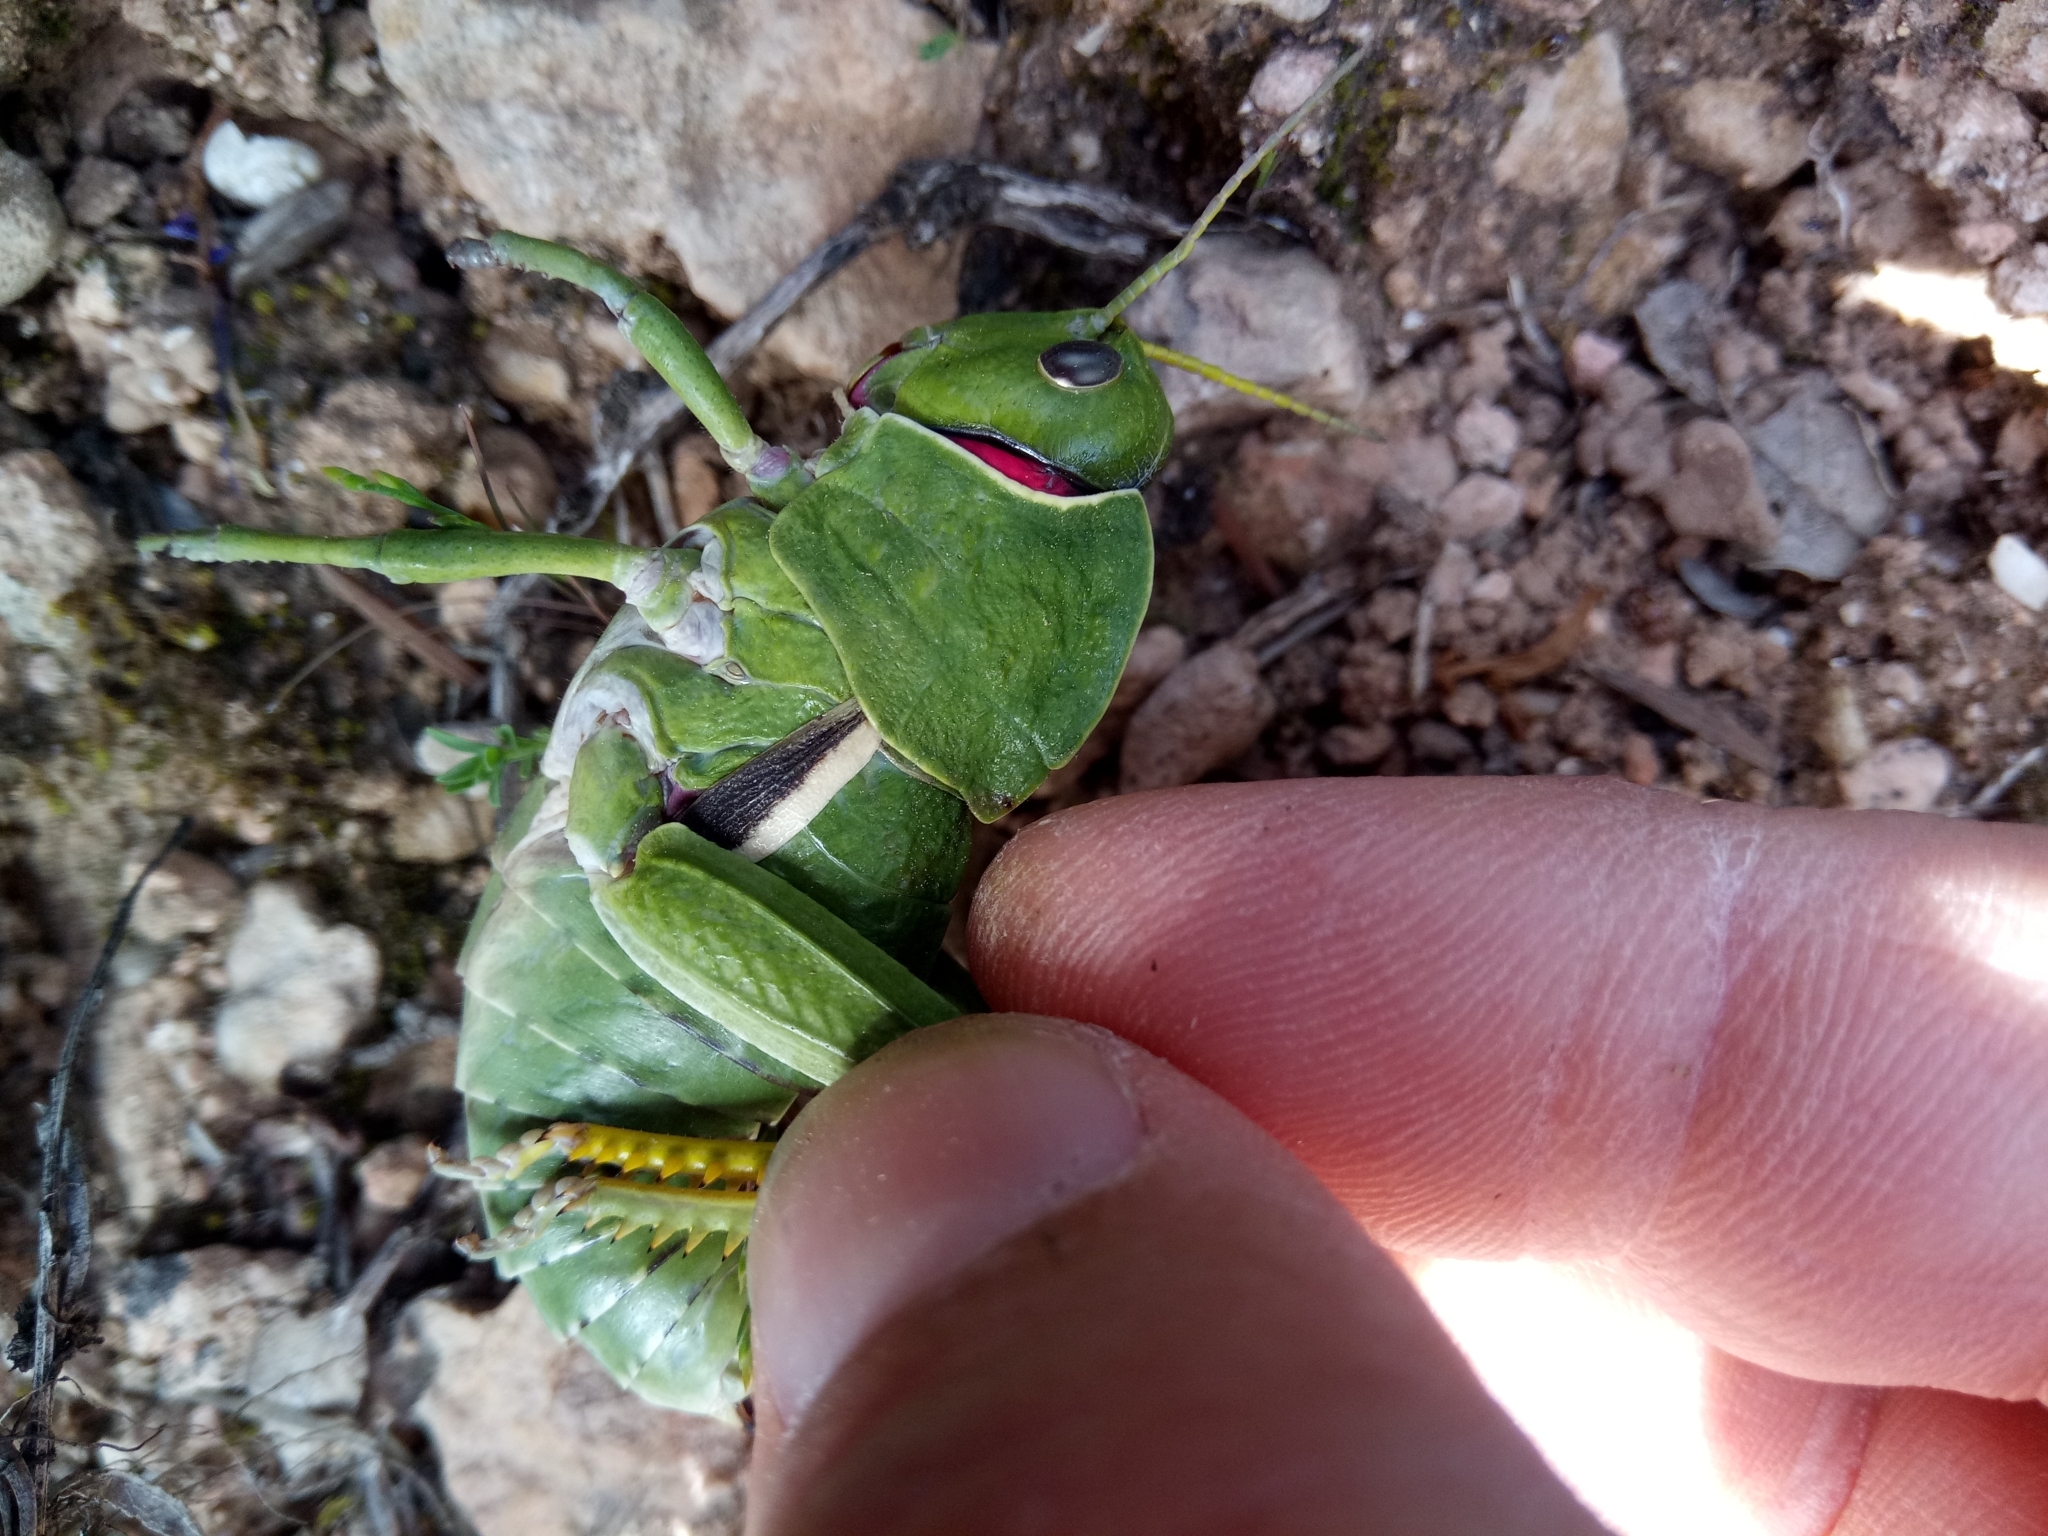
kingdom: Animalia
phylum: Arthropoda
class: Insecta
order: Orthoptera
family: Pamphagidae
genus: Pamphagus
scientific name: Pamphagus milevitanus
